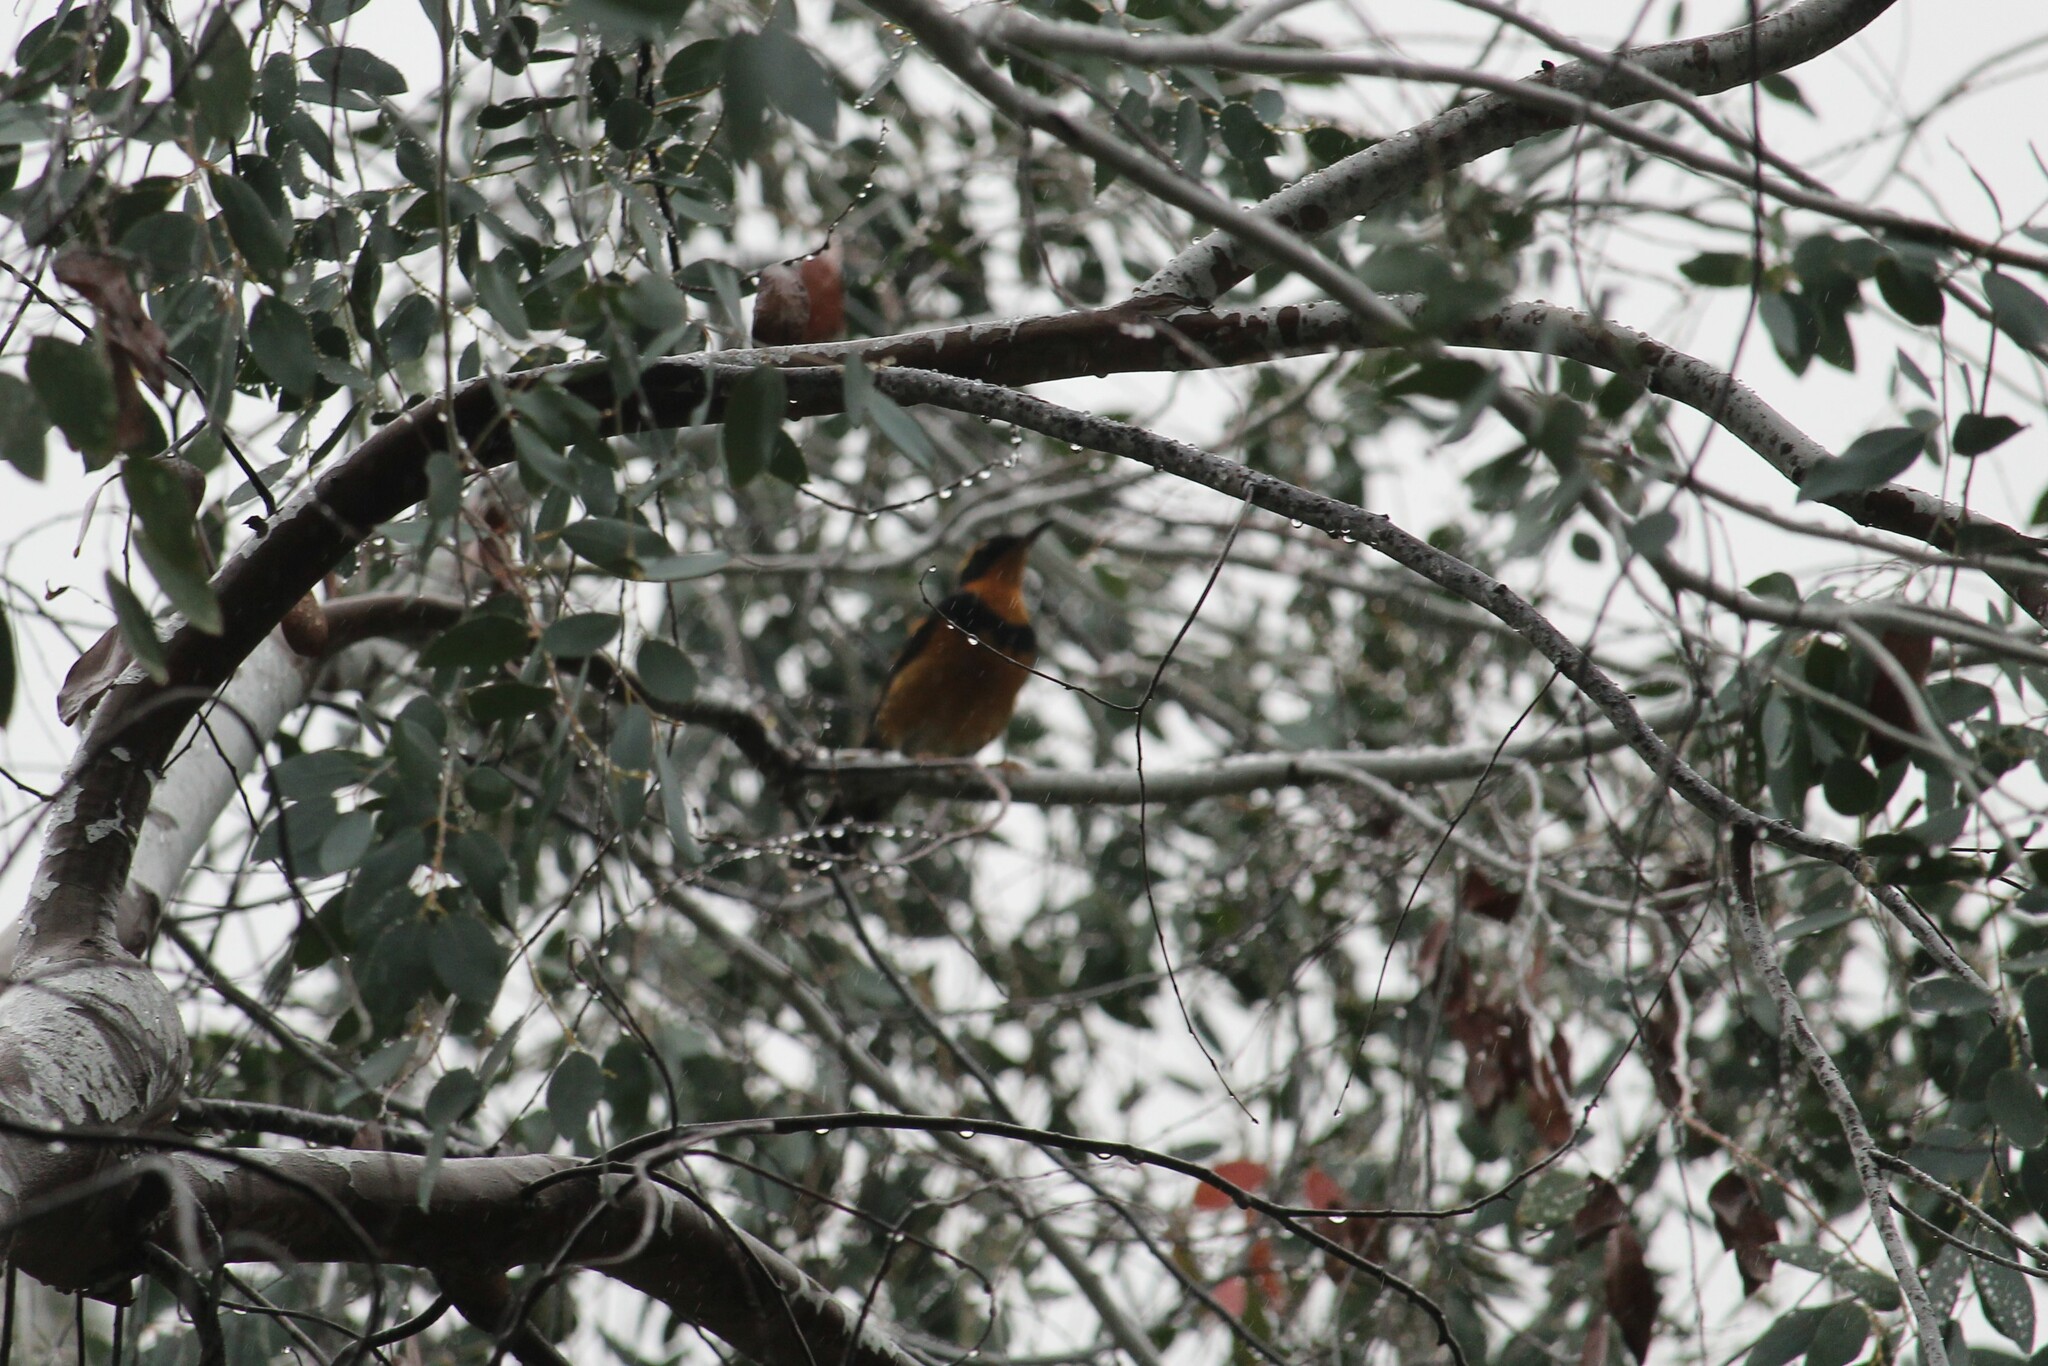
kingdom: Animalia
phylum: Chordata
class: Aves
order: Passeriformes
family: Turdidae
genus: Ixoreus
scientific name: Ixoreus naevius
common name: Varied thrush
